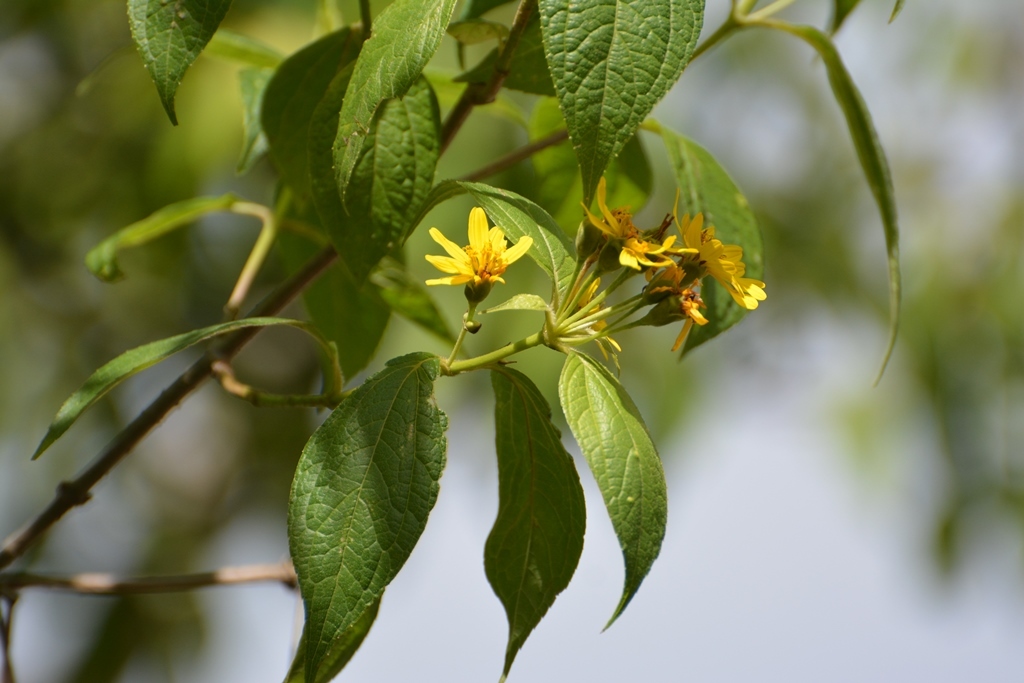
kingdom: Plantae
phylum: Tracheophyta
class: Magnoliopsida
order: Asterales
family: Asteraceae
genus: Perymenium
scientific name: Perymenium grande
